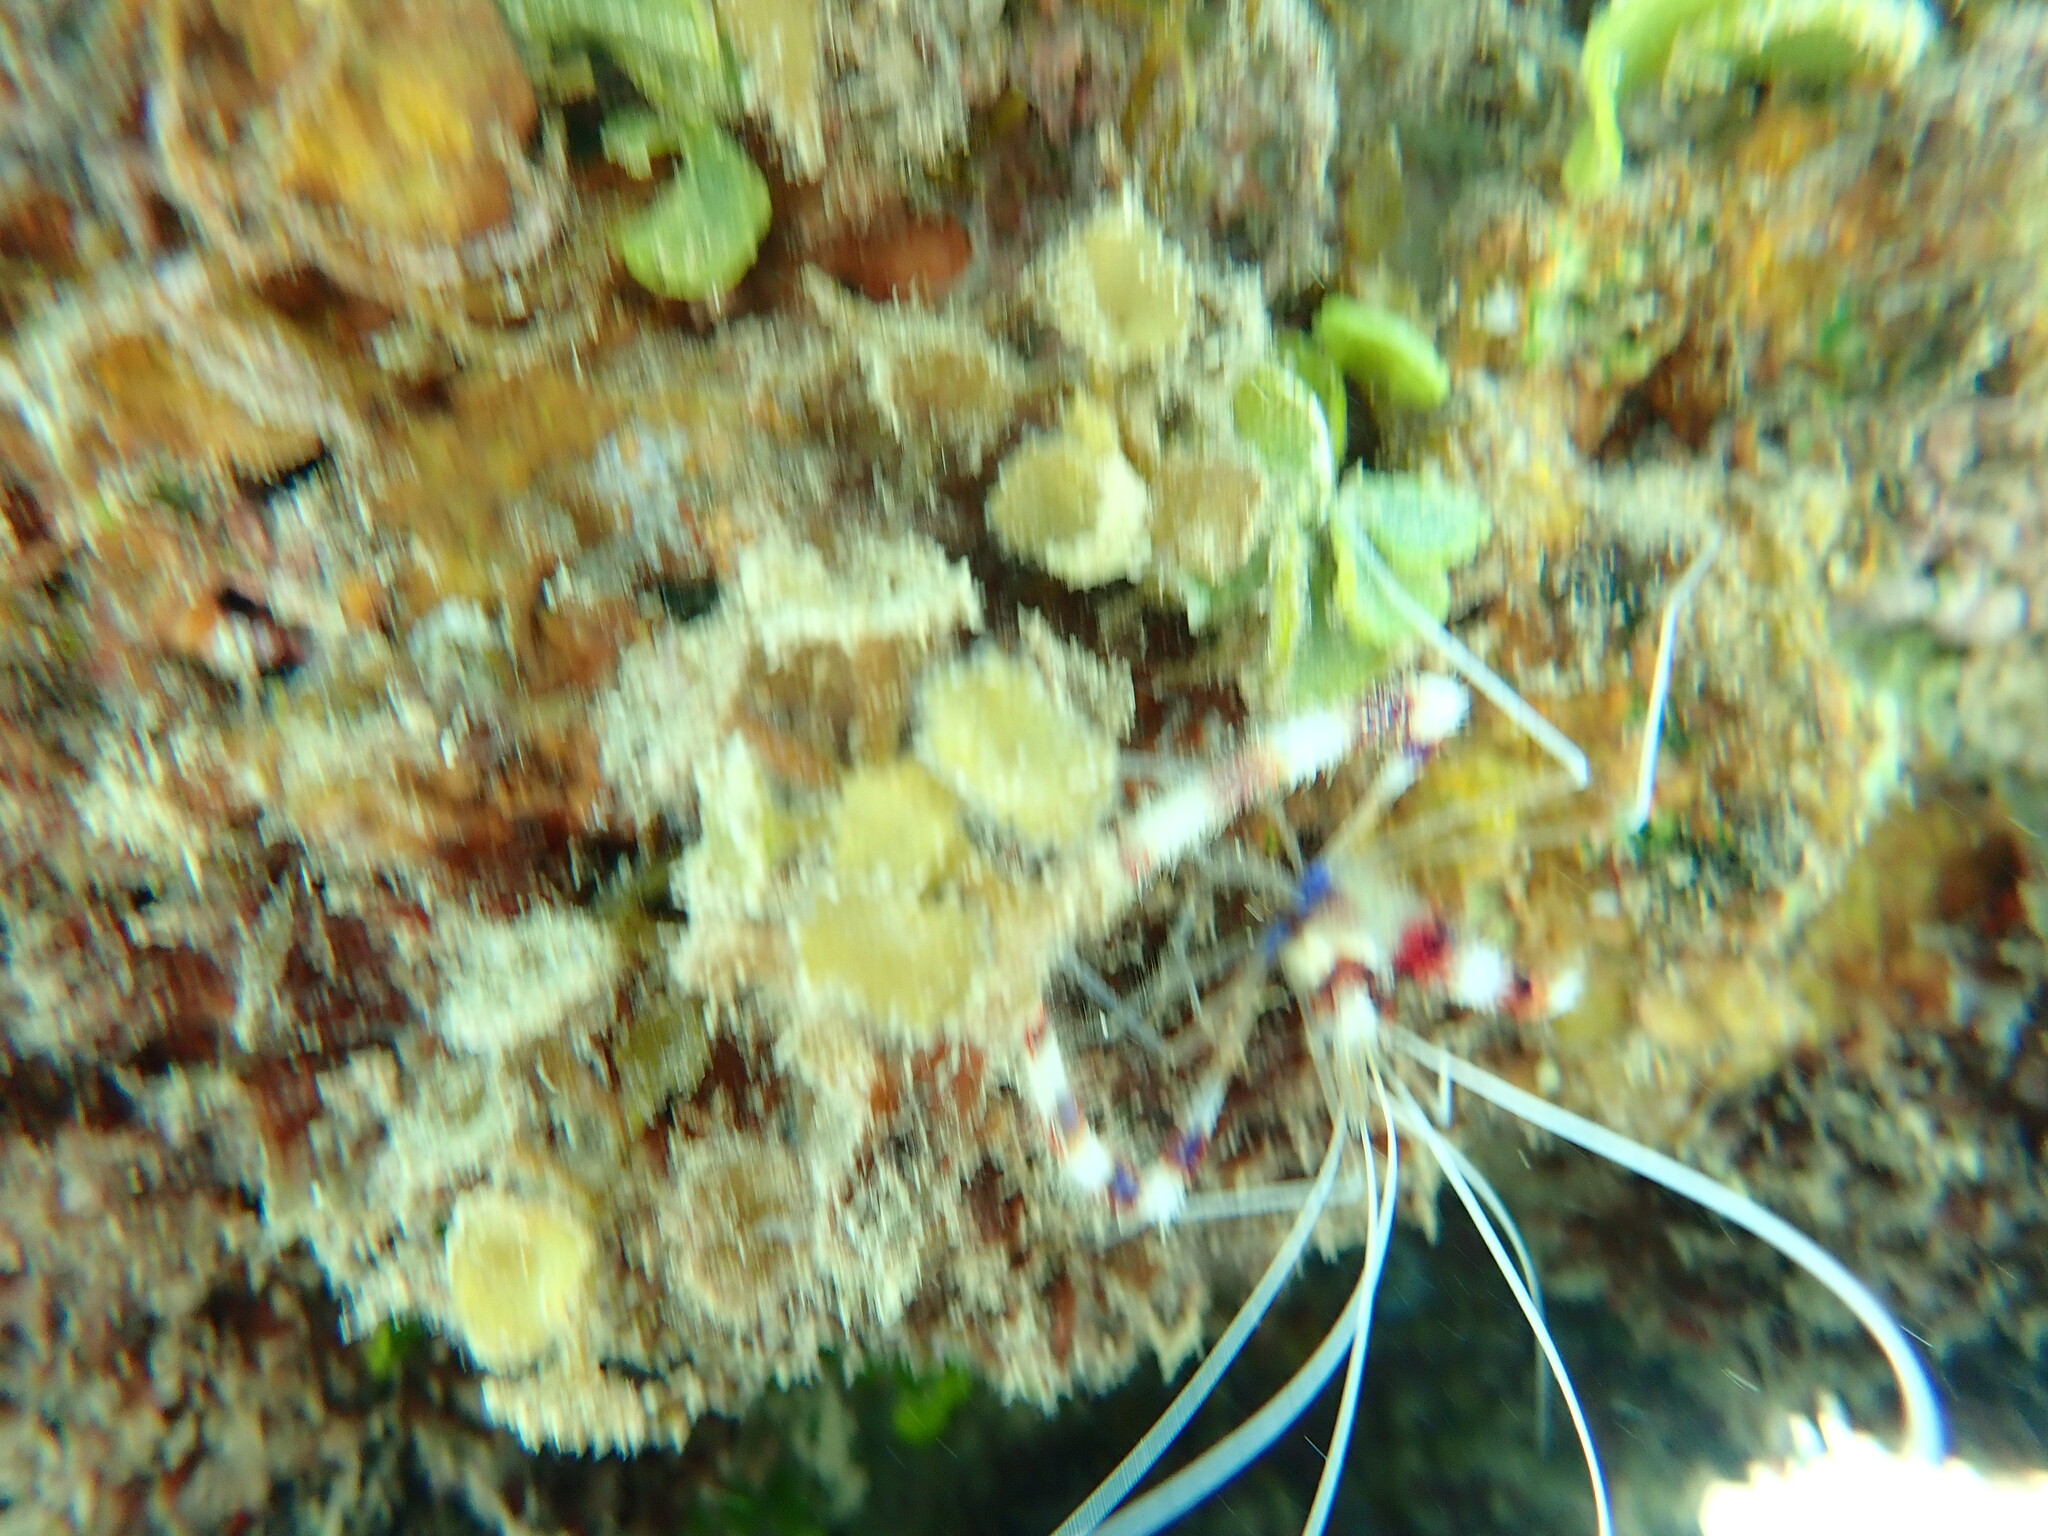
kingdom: Animalia
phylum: Arthropoda
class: Malacostraca
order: Decapoda
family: Stenopodidae
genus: Stenopus
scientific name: Stenopus hispidus
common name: Banded coral shrimp
